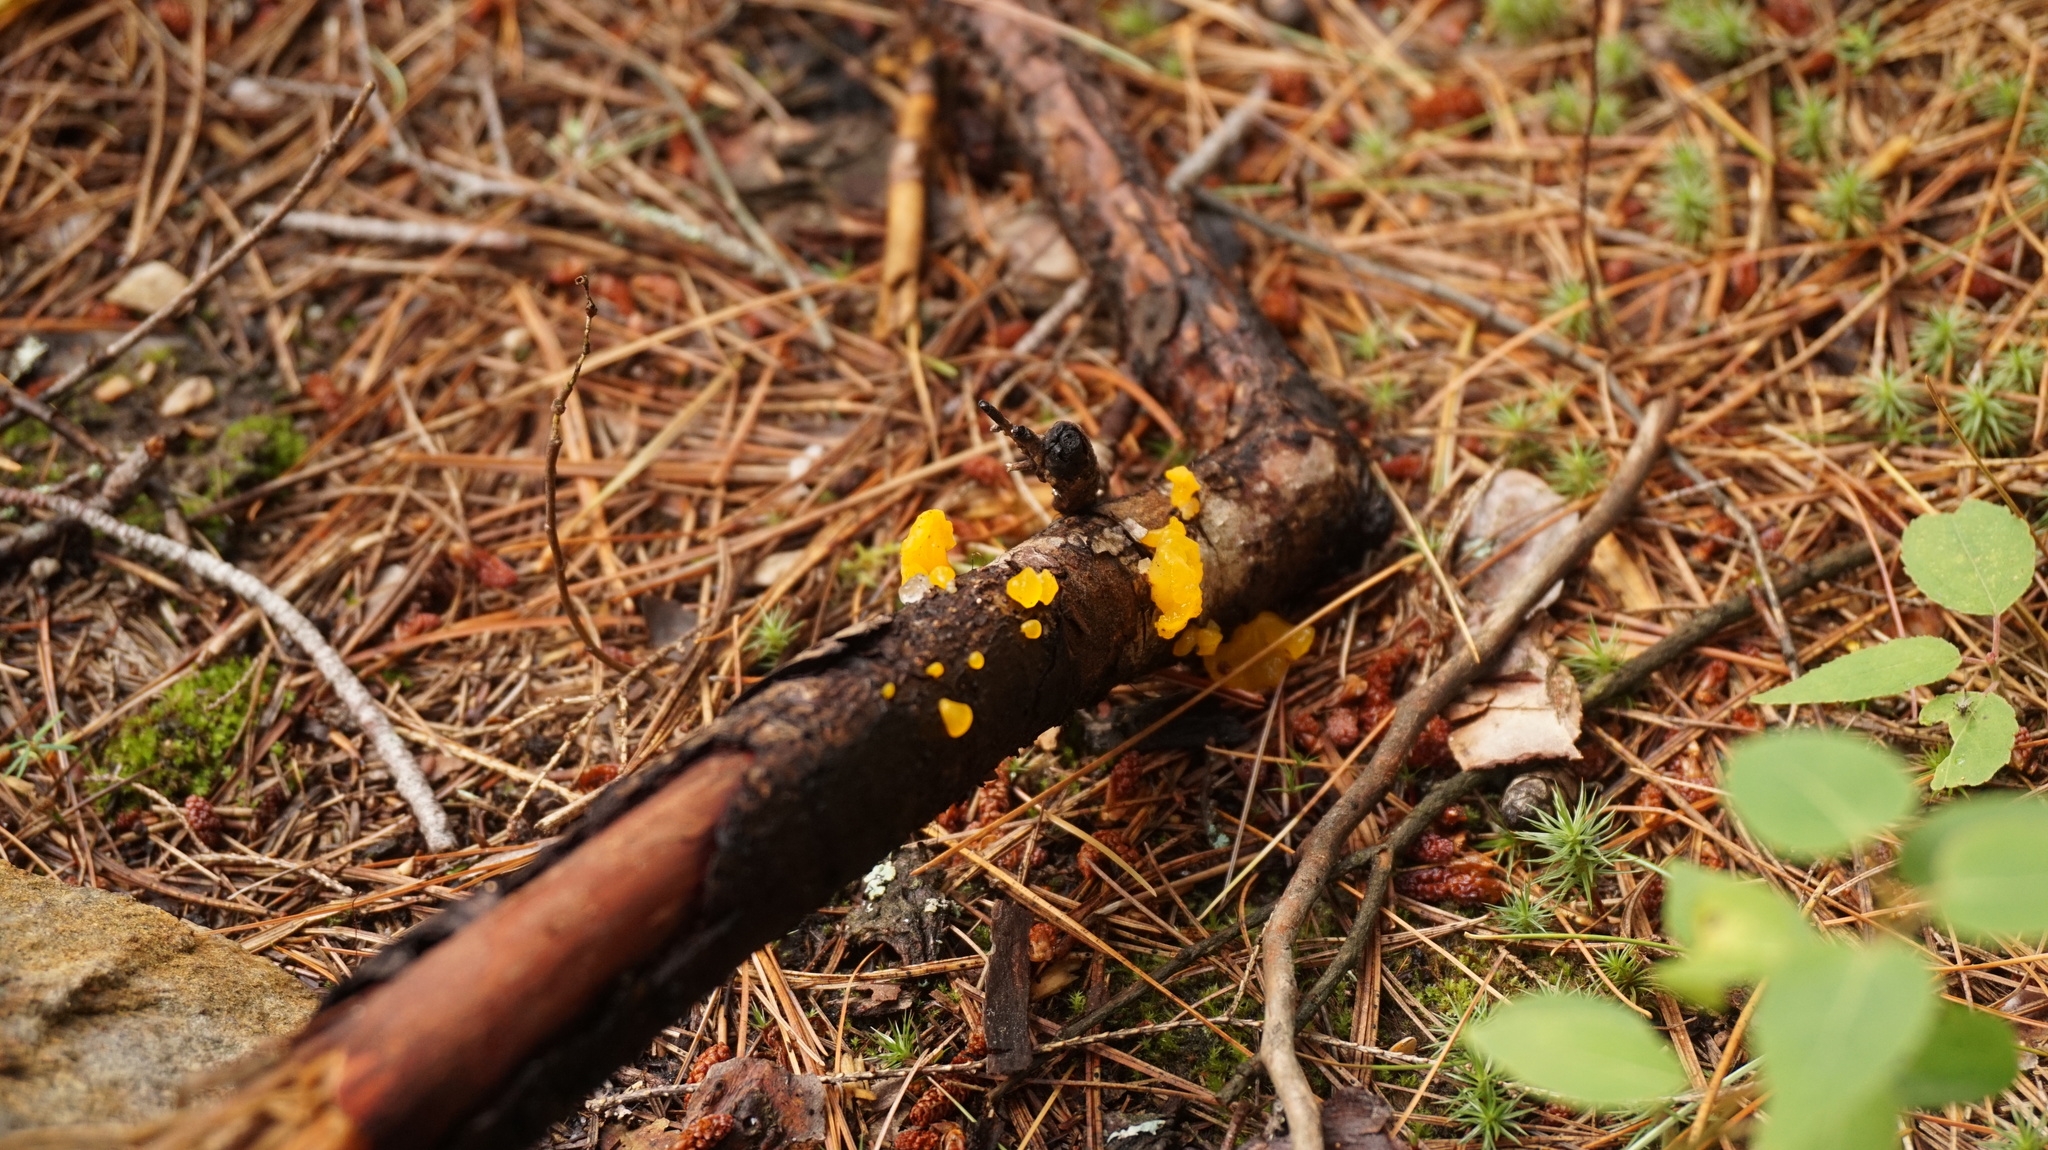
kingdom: Fungi
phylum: Basidiomycota
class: Dacrymycetes
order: Dacrymycetales
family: Dacrymycetaceae
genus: Dacrymyces
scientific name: Dacrymyces chrysospermus
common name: Orange jelly spot
